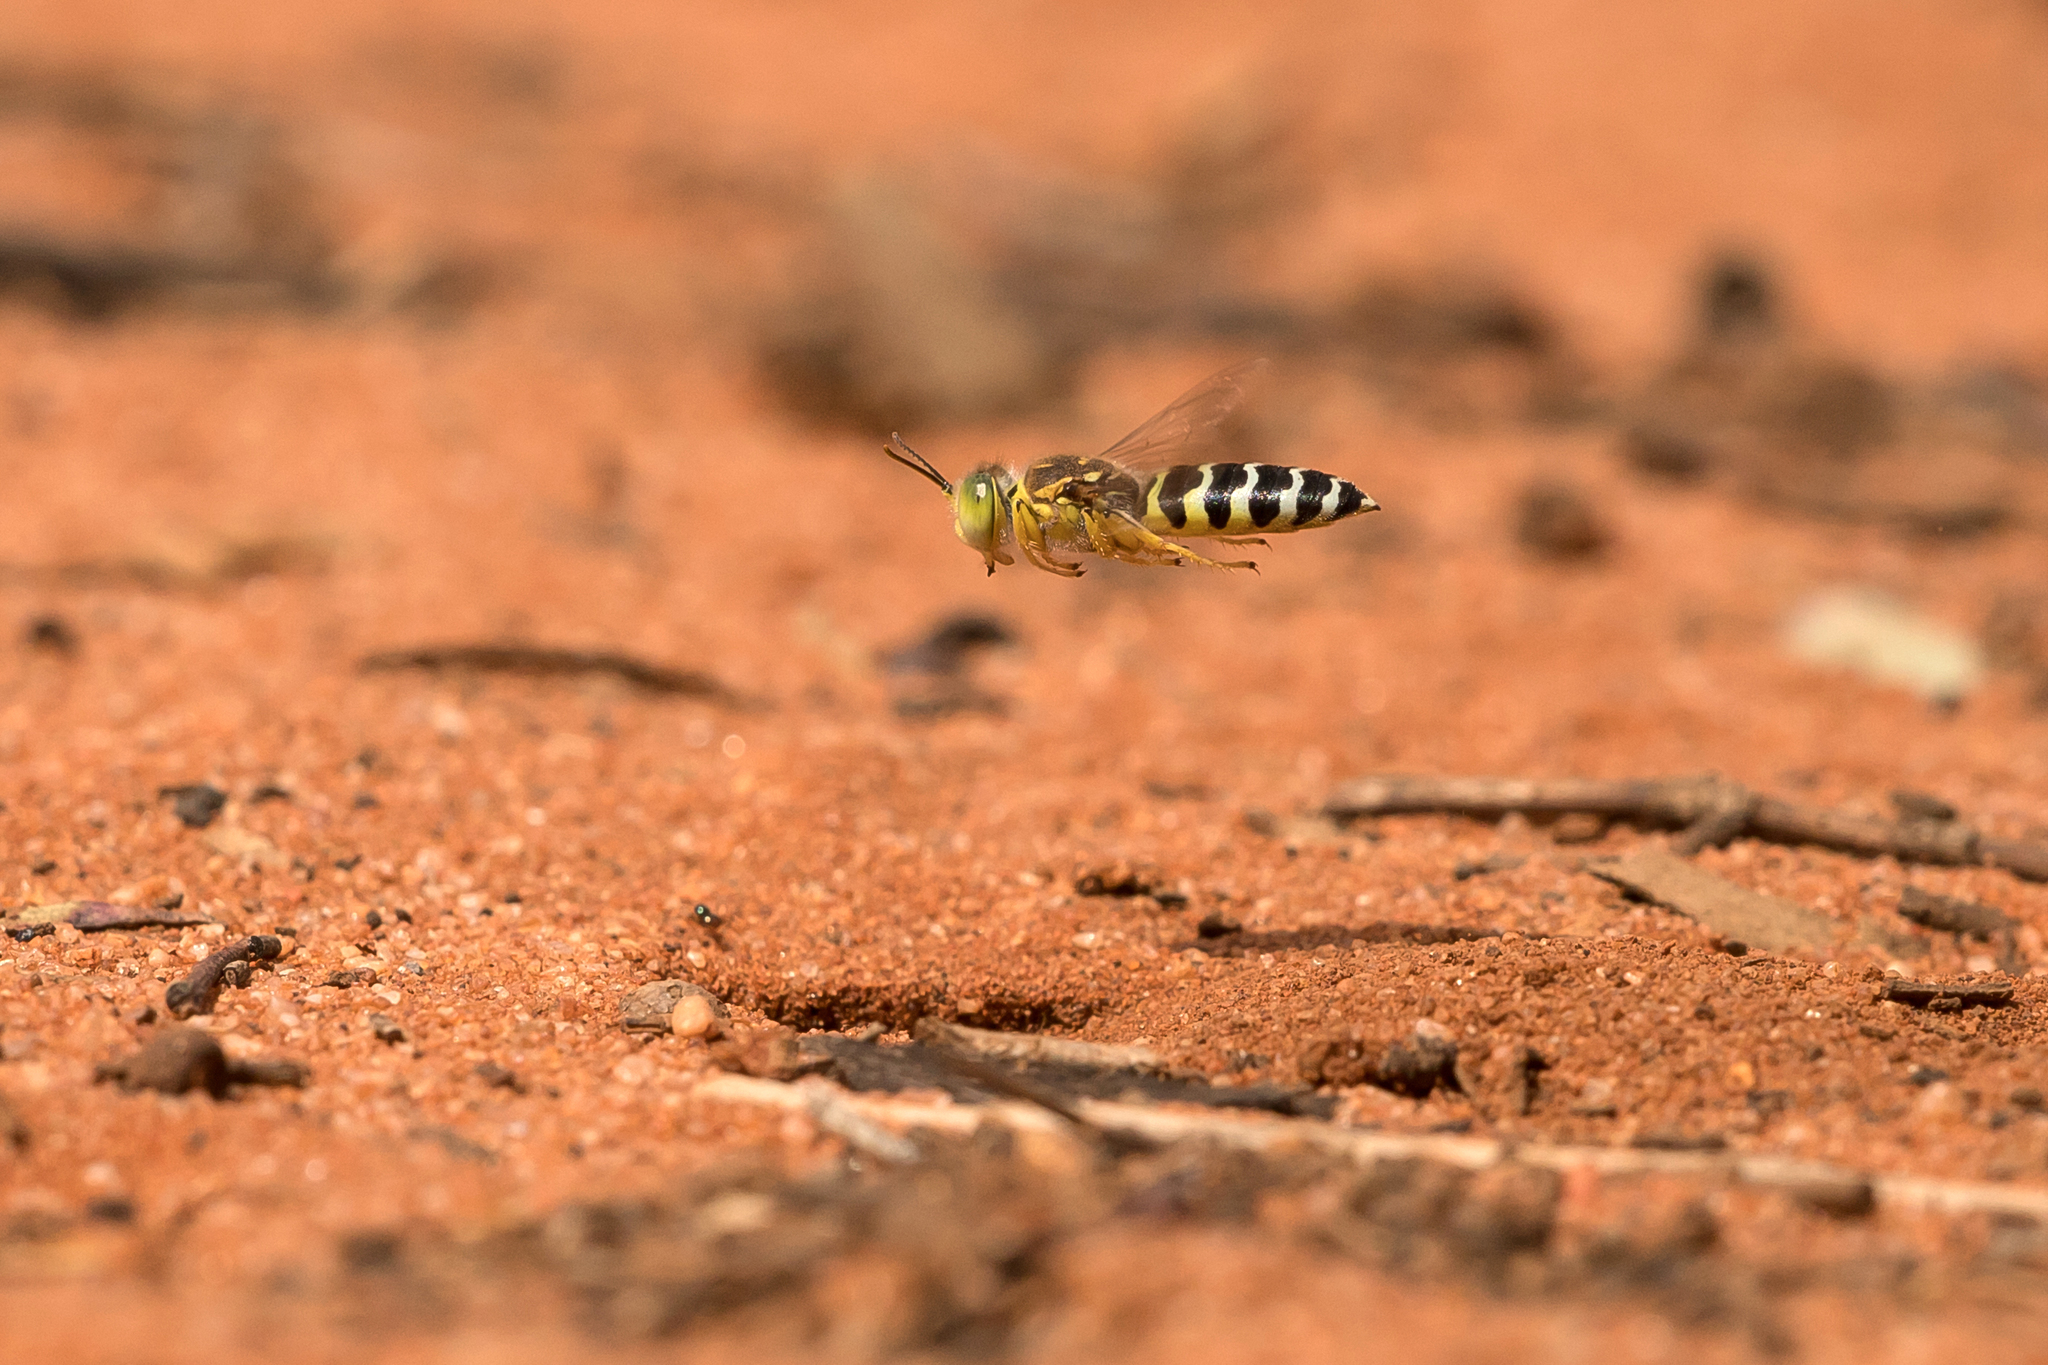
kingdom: Animalia
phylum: Arthropoda
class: Insecta
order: Hymenoptera
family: Crabronidae
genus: Bembix
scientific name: Bembix
